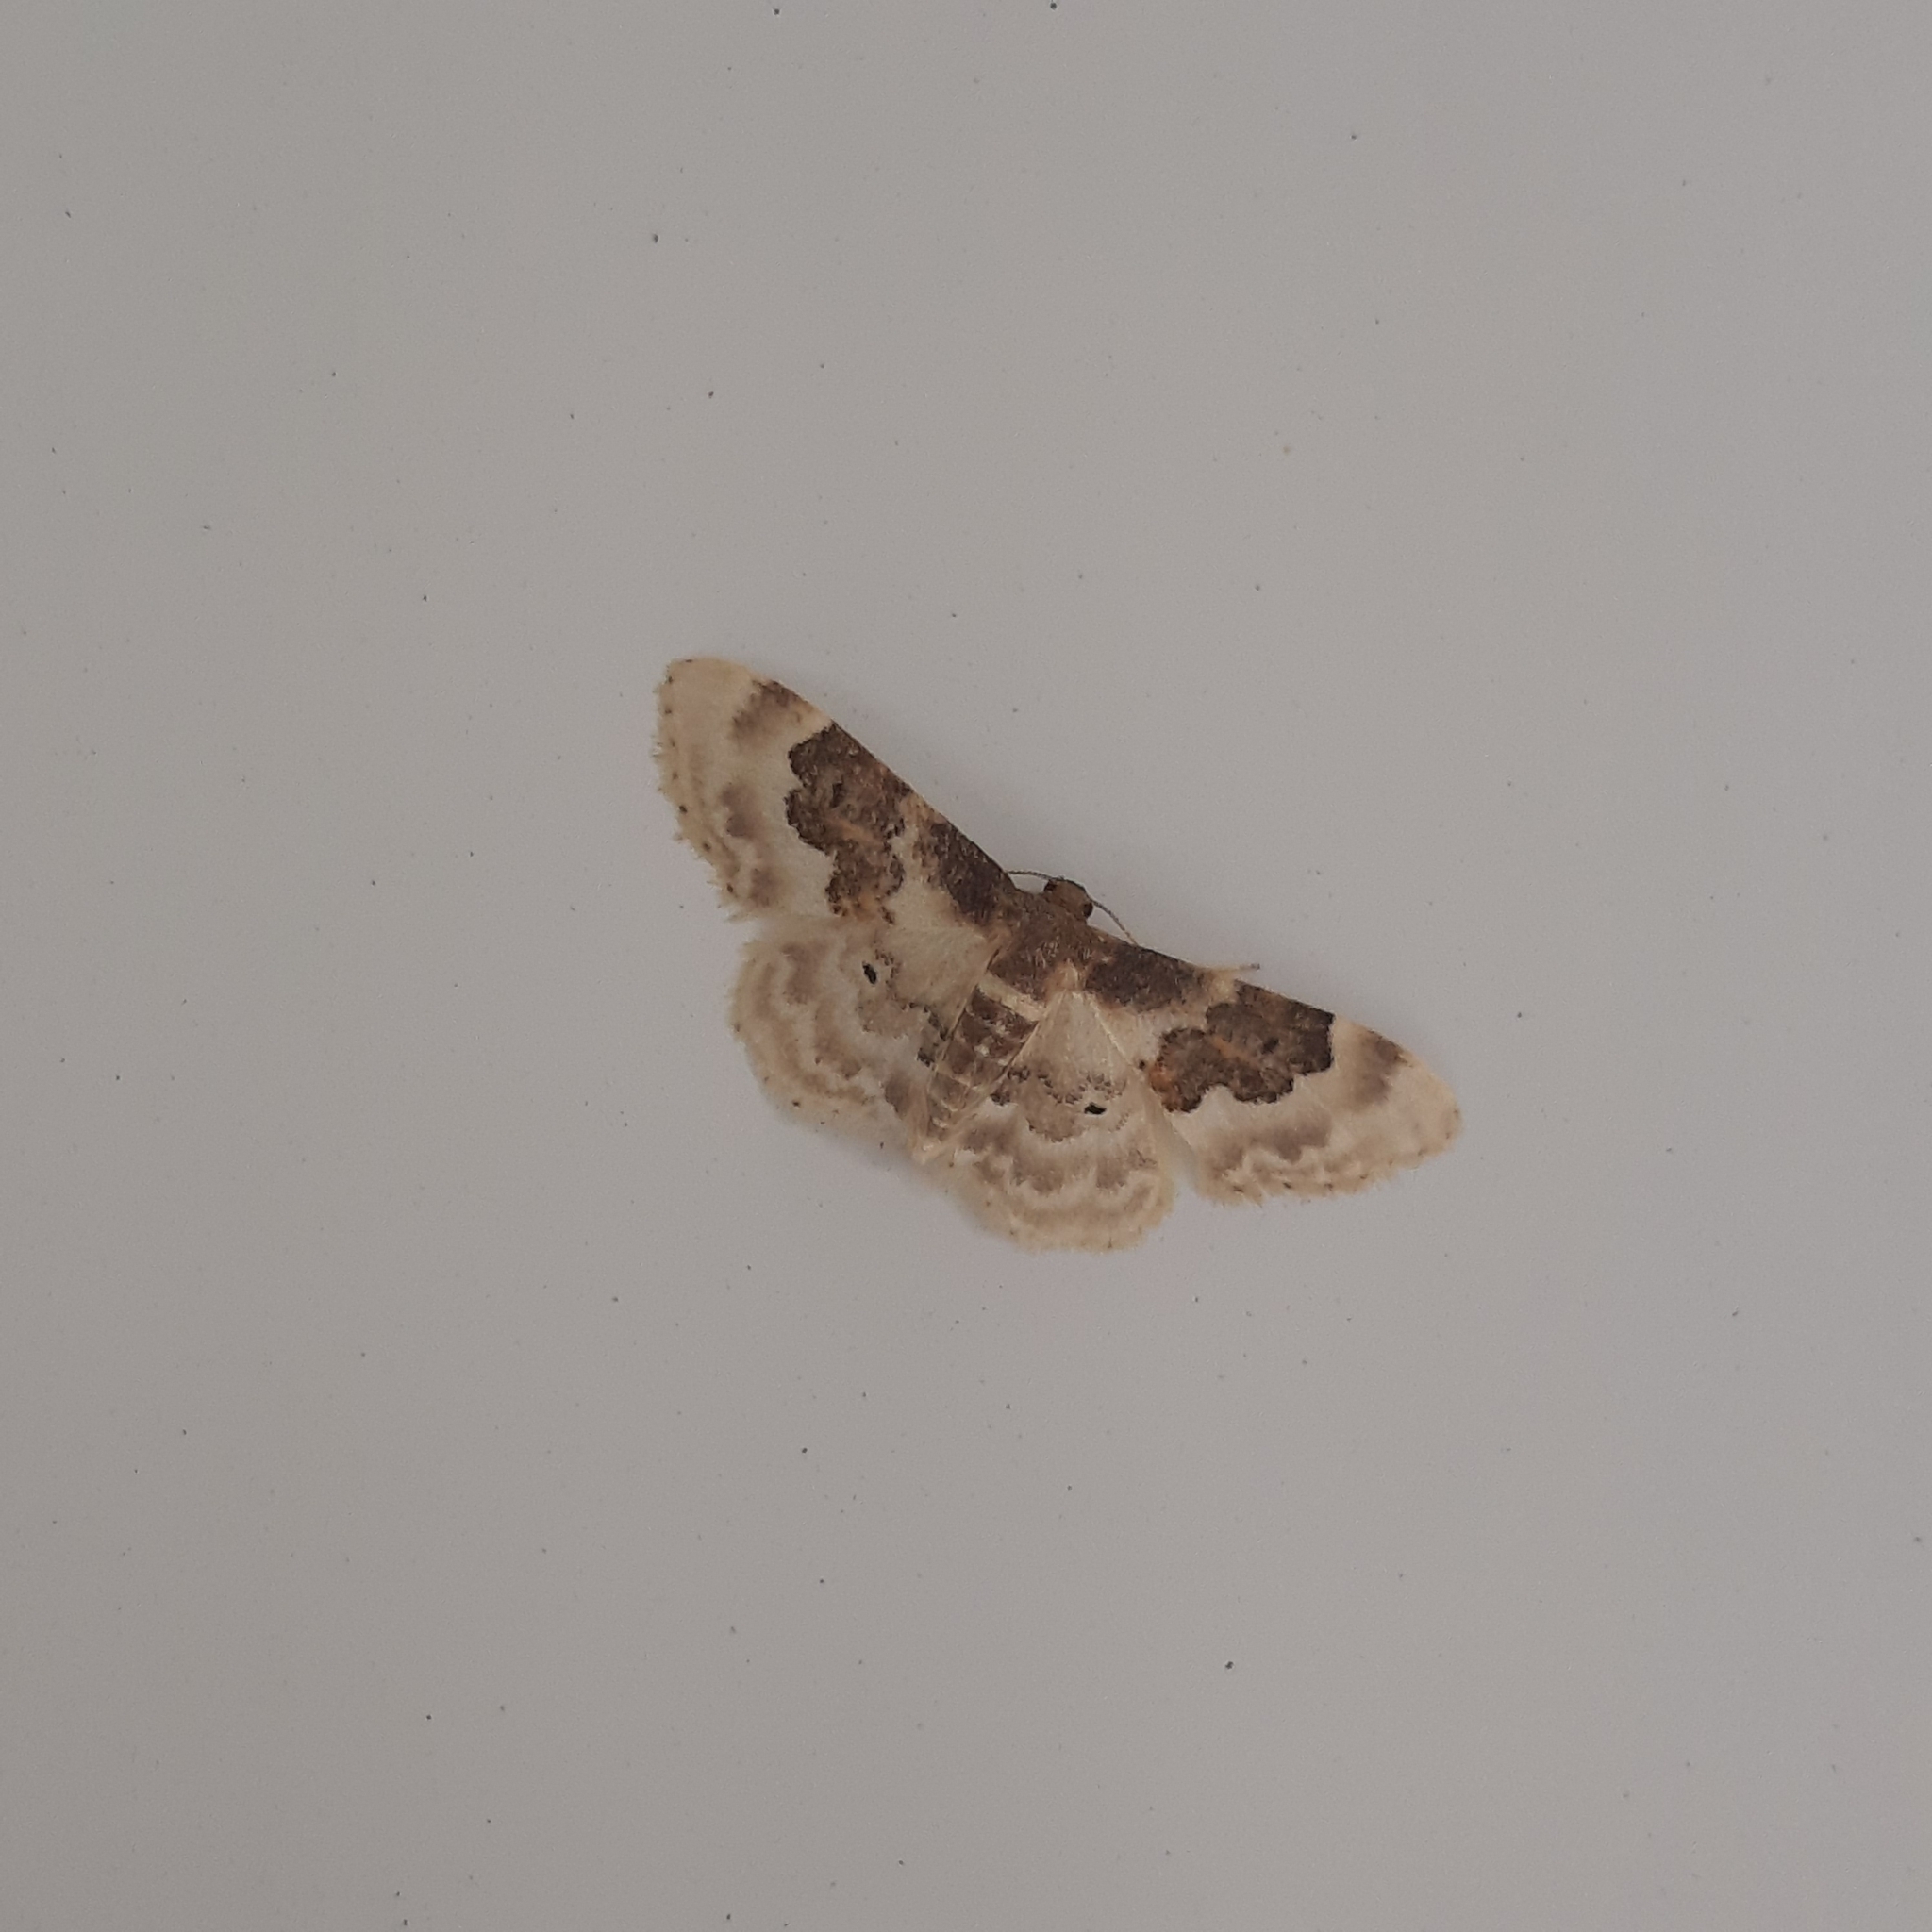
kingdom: Animalia
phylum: Arthropoda
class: Insecta
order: Lepidoptera
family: Geometridae
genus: Idaea
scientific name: Idaea rusticata
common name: Least carpet
